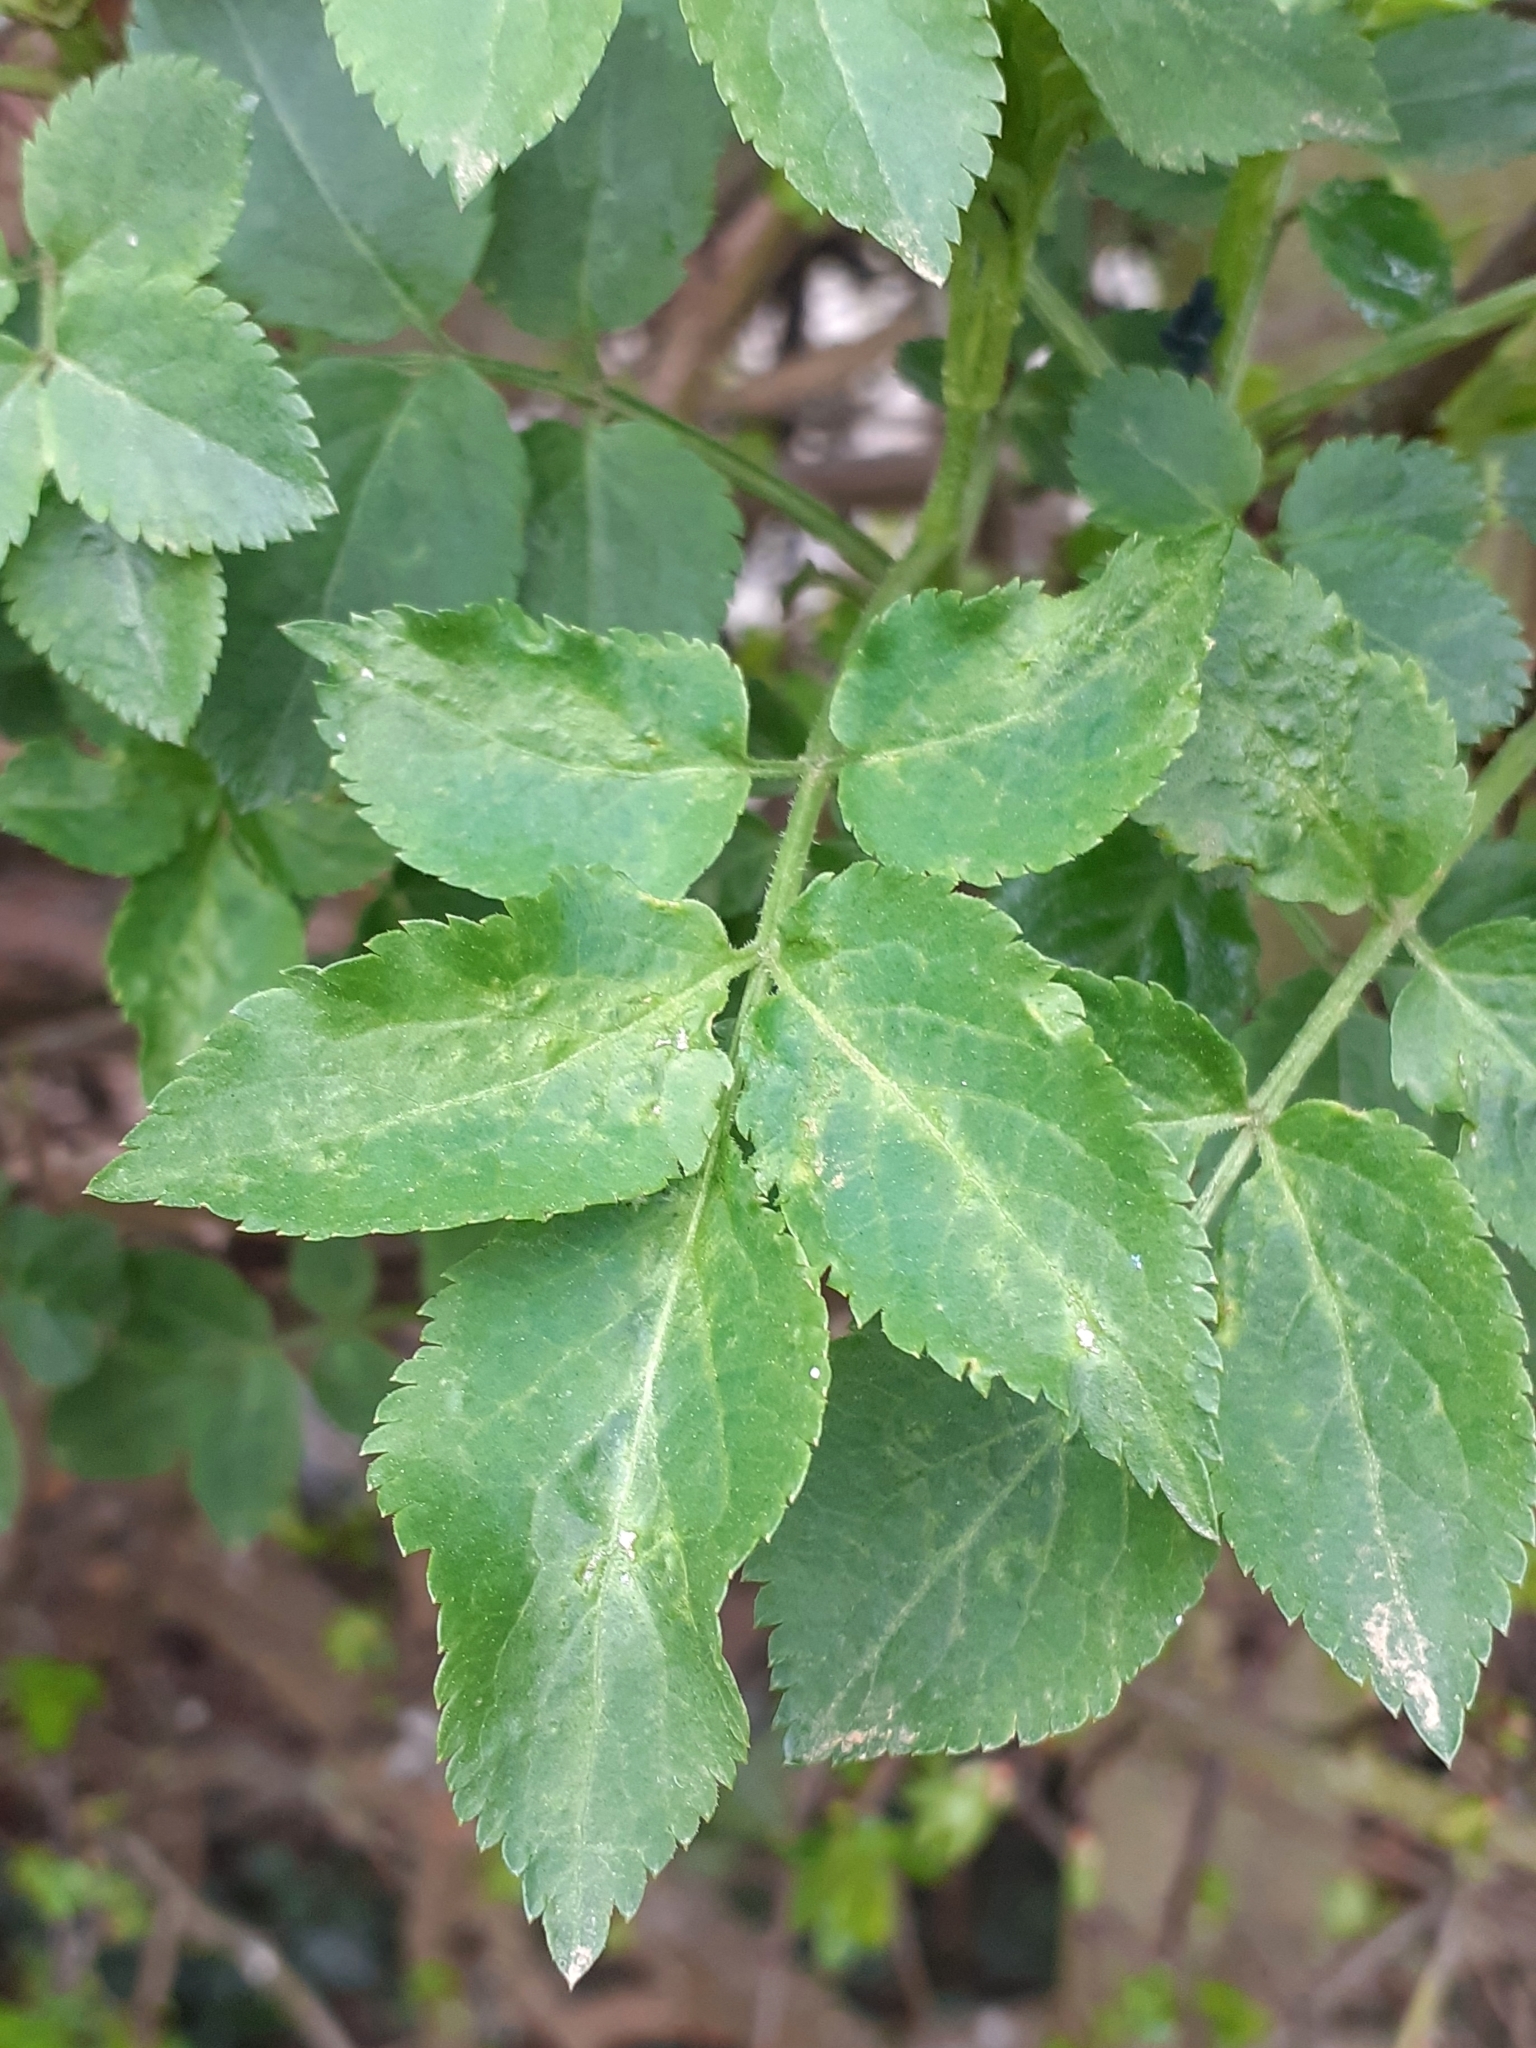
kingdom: Plantae
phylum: Tracheophyta
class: Magnoliopsida
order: Dipsacales
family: Viburnaceae
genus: Sambucus
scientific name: Sambucus nigra
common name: Elder
